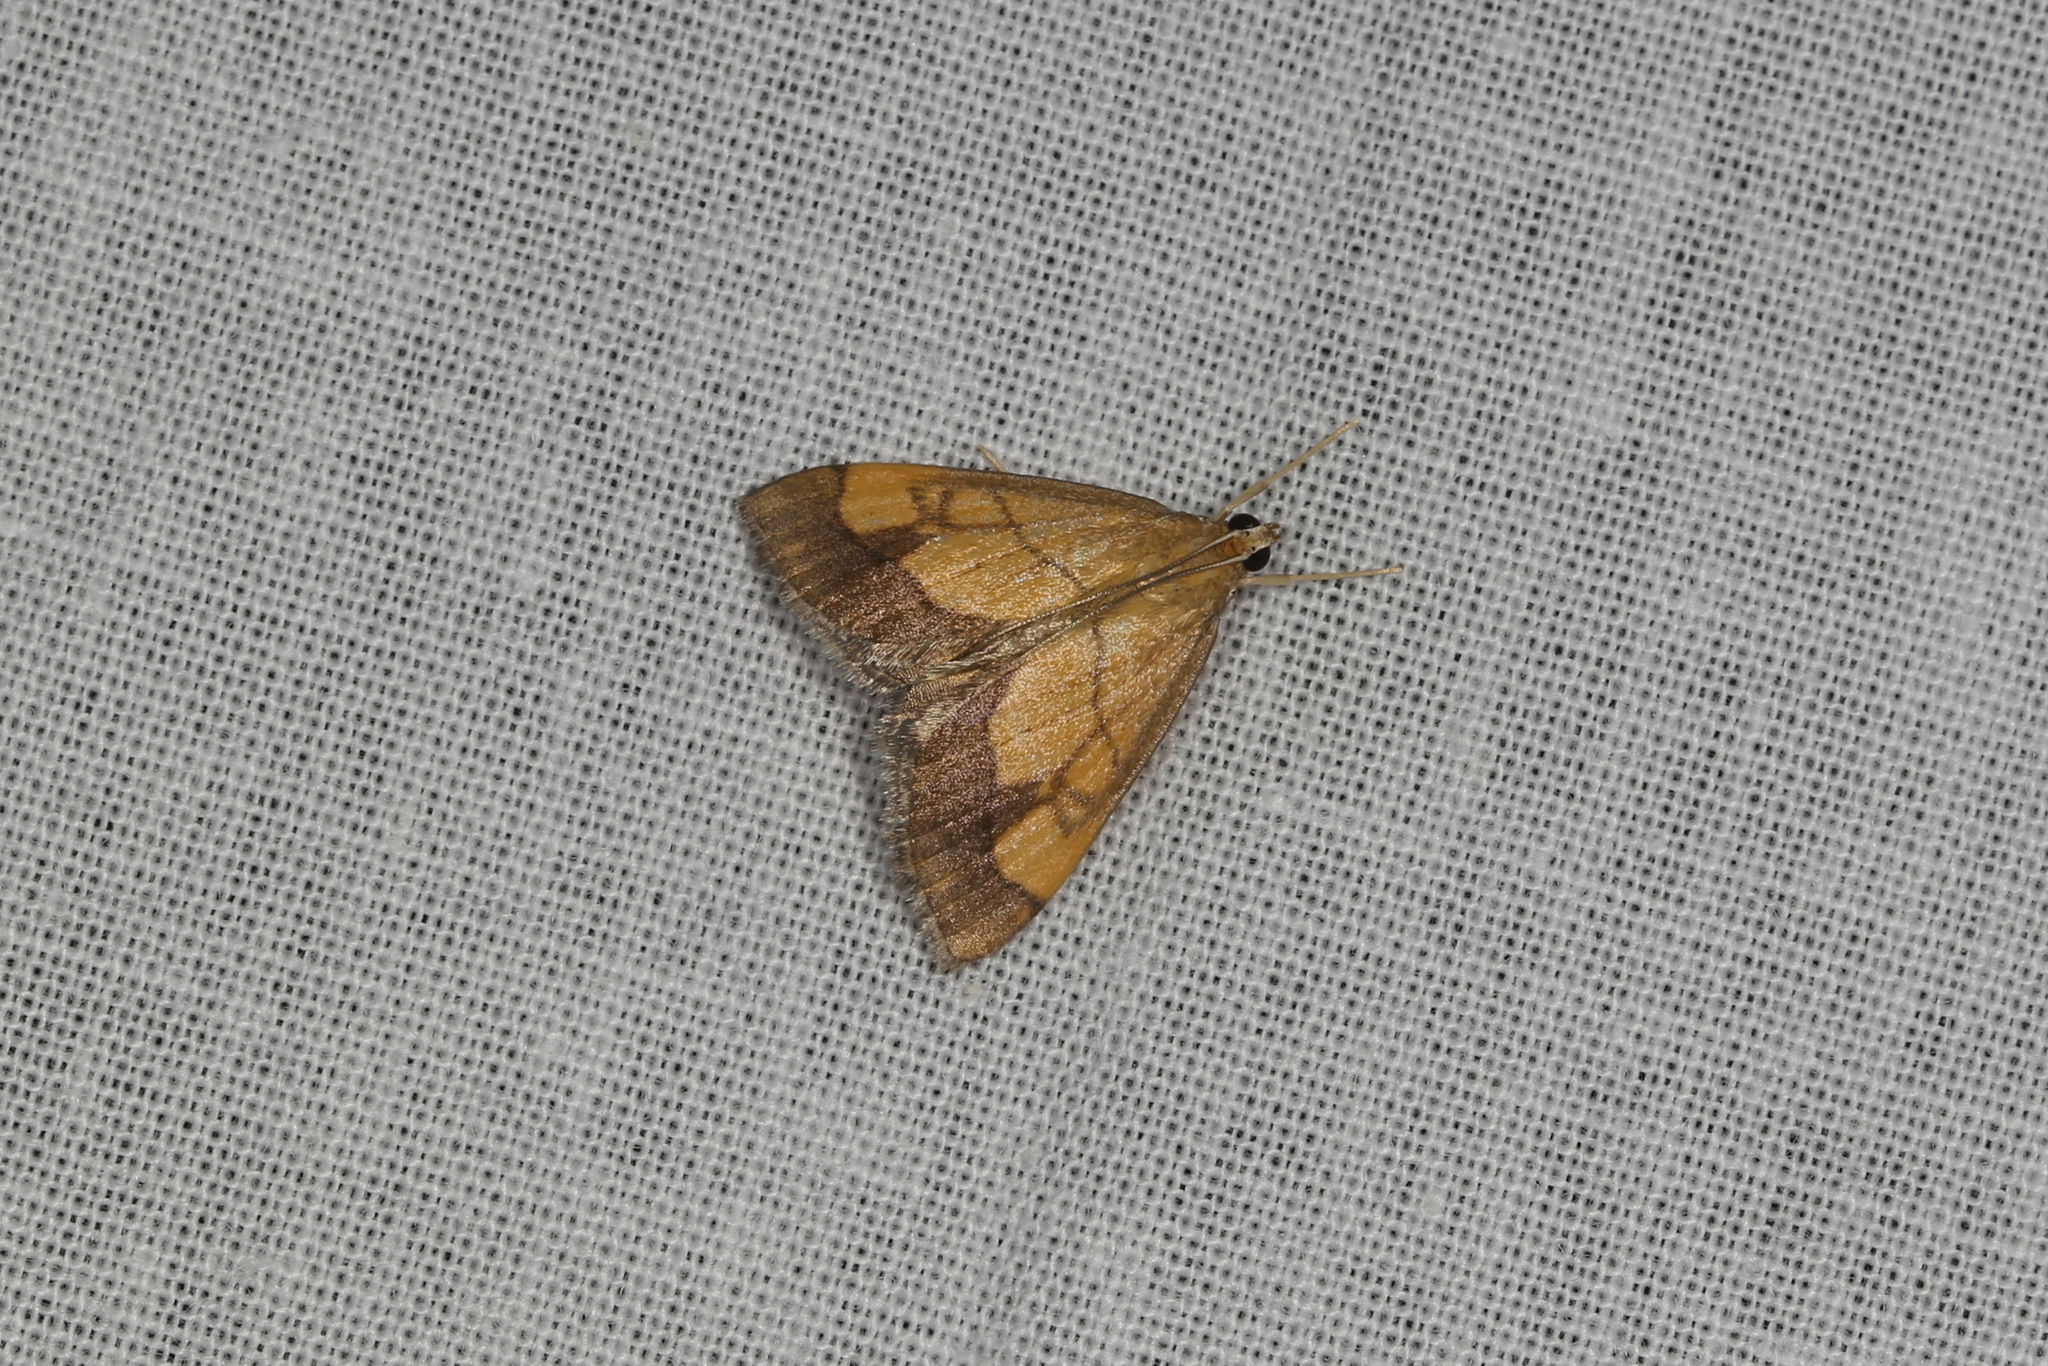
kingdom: Animalia
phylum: Arthropoda
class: Insecta
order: Lepidoptera
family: Crambidae
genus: Evergestis
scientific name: Evergestis limbata
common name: Dark bordered pearl
